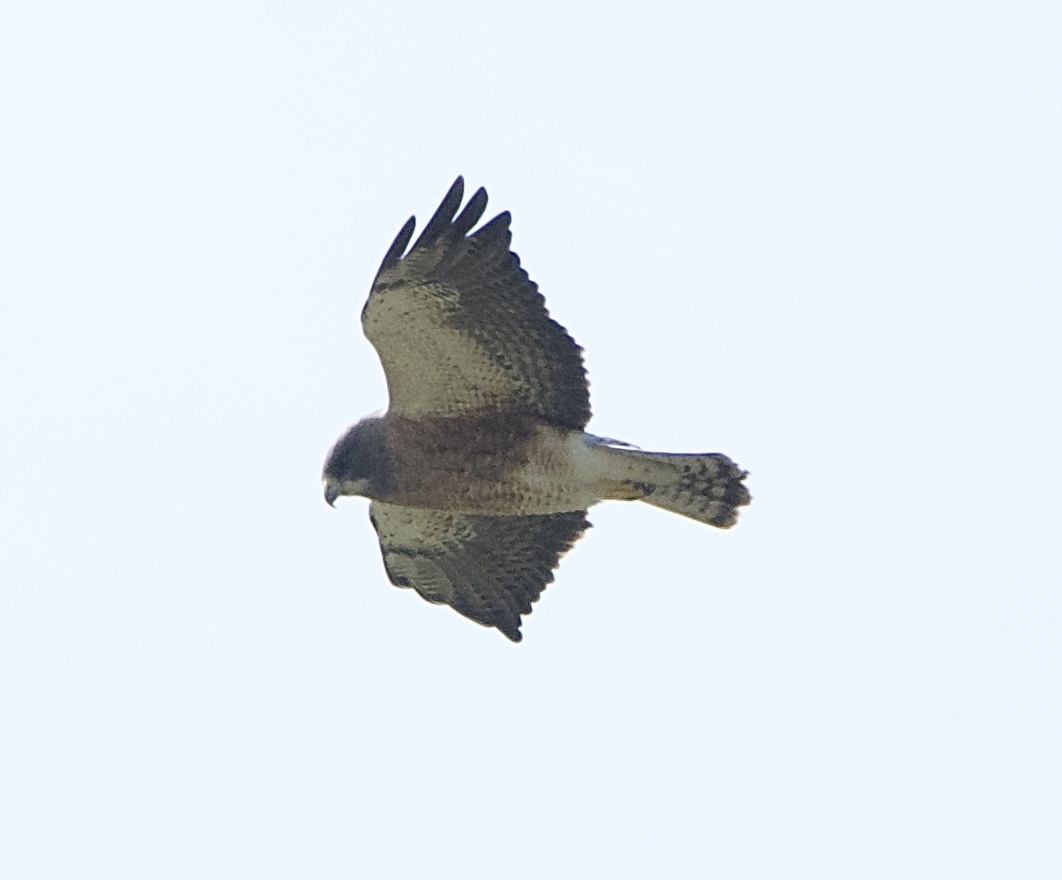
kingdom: Animalia
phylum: Chordata
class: Aves
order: Accipitriformes
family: Accipitridae
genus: Buteo
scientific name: Buteo swainsoni
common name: Swainson's hawk
